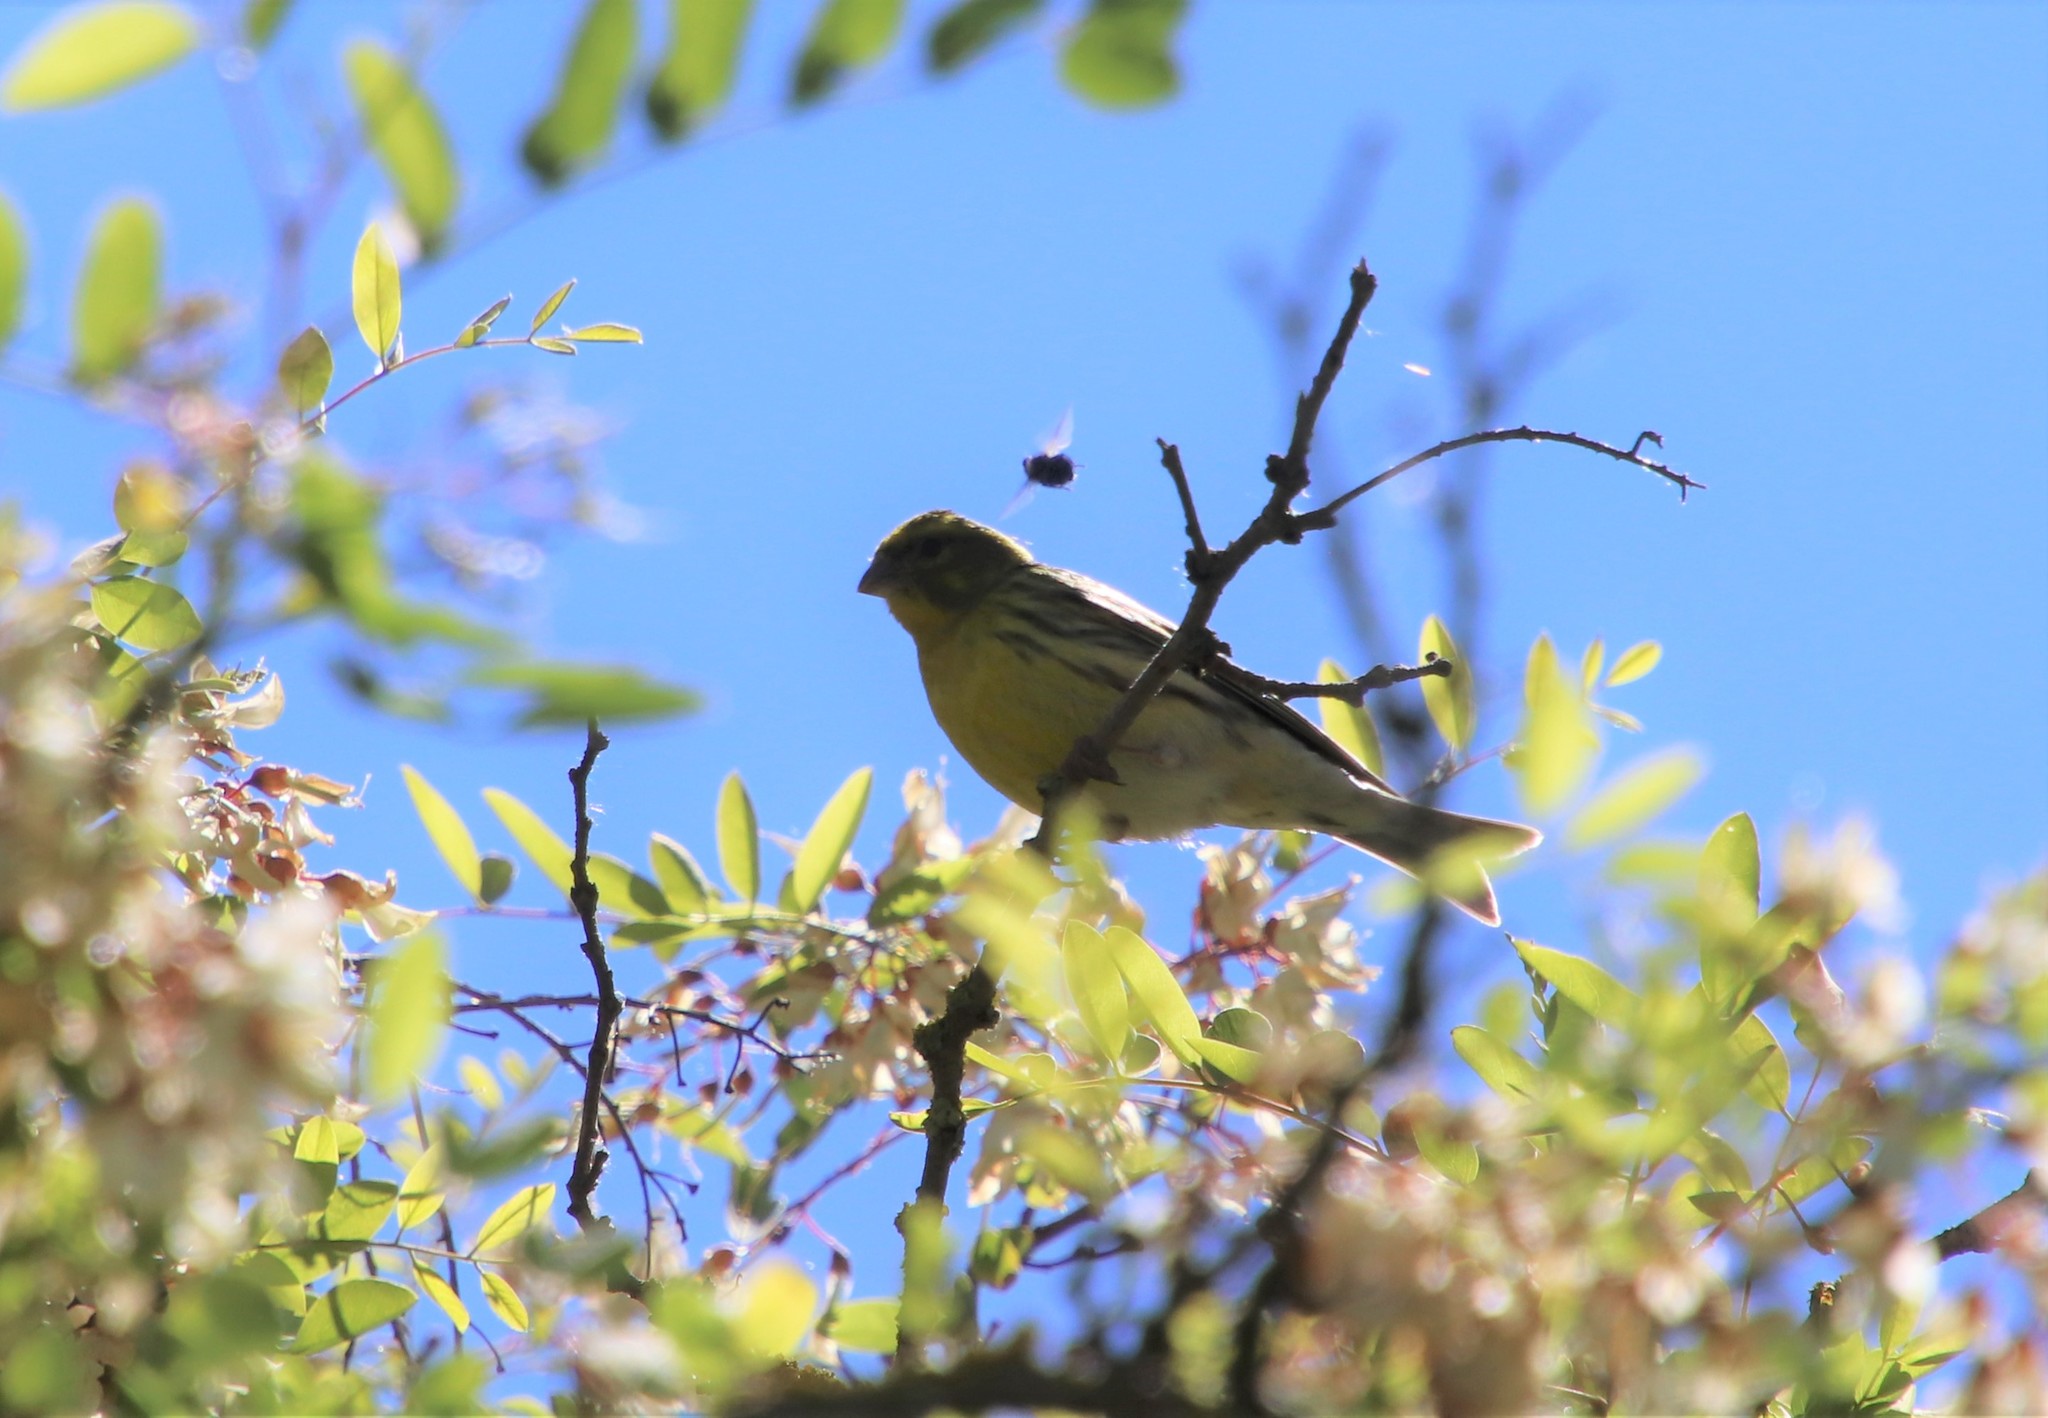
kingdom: Animalia
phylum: Chordata
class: Aves
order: Passeriformes
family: Fringillidae
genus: Serinus
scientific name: Serinus serinus
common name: European serin
